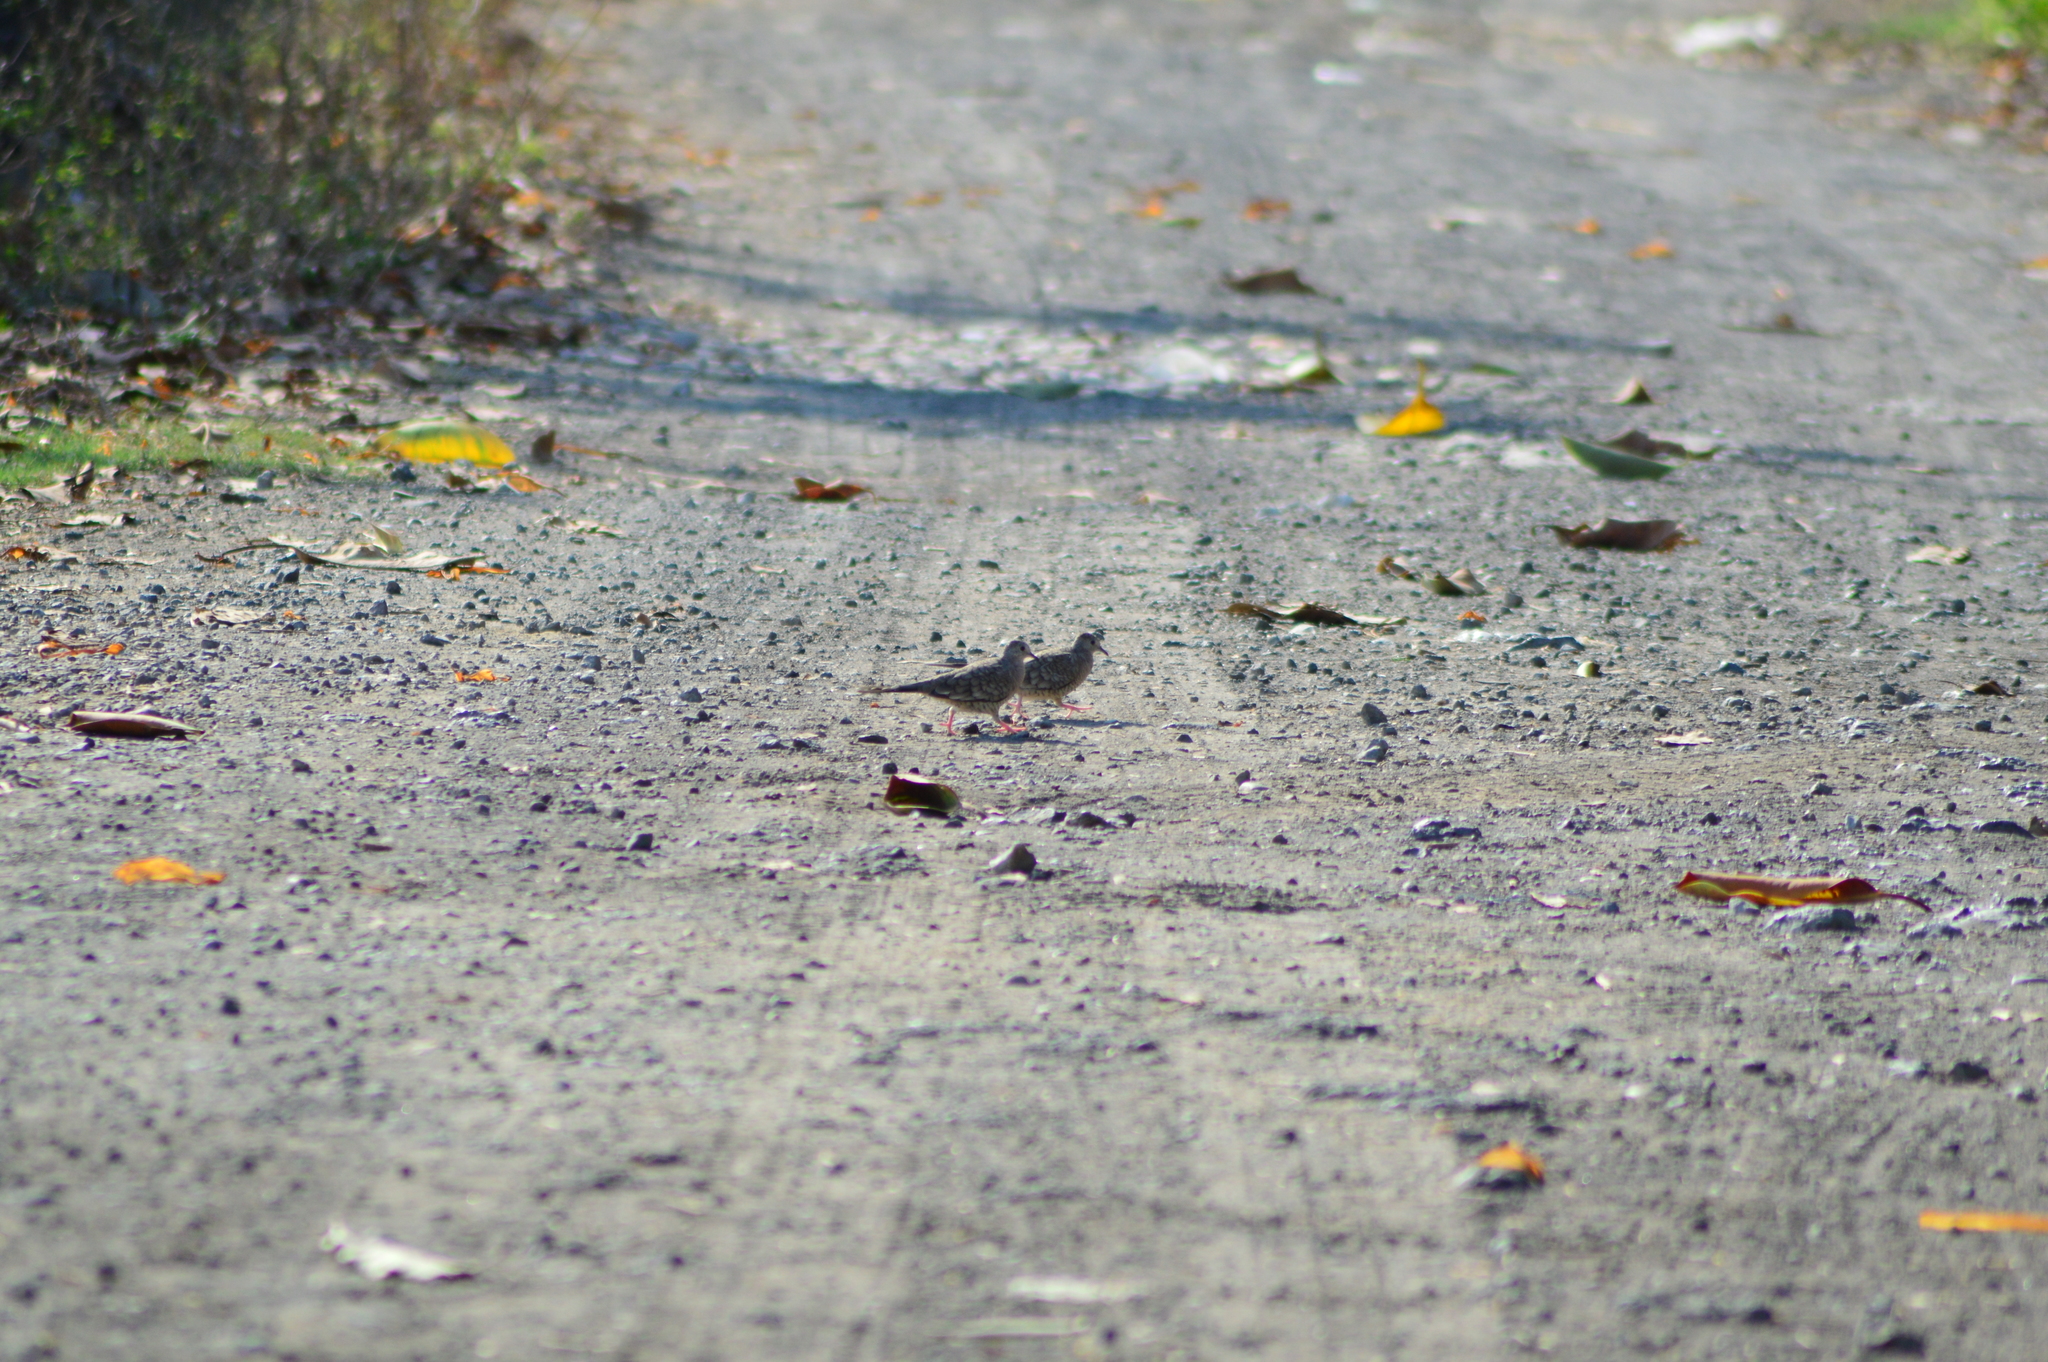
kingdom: Animalia
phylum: Chordata
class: Aves
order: Columbiformes
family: Columbidae
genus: Columbina
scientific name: Columbina inca
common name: Inca dove
